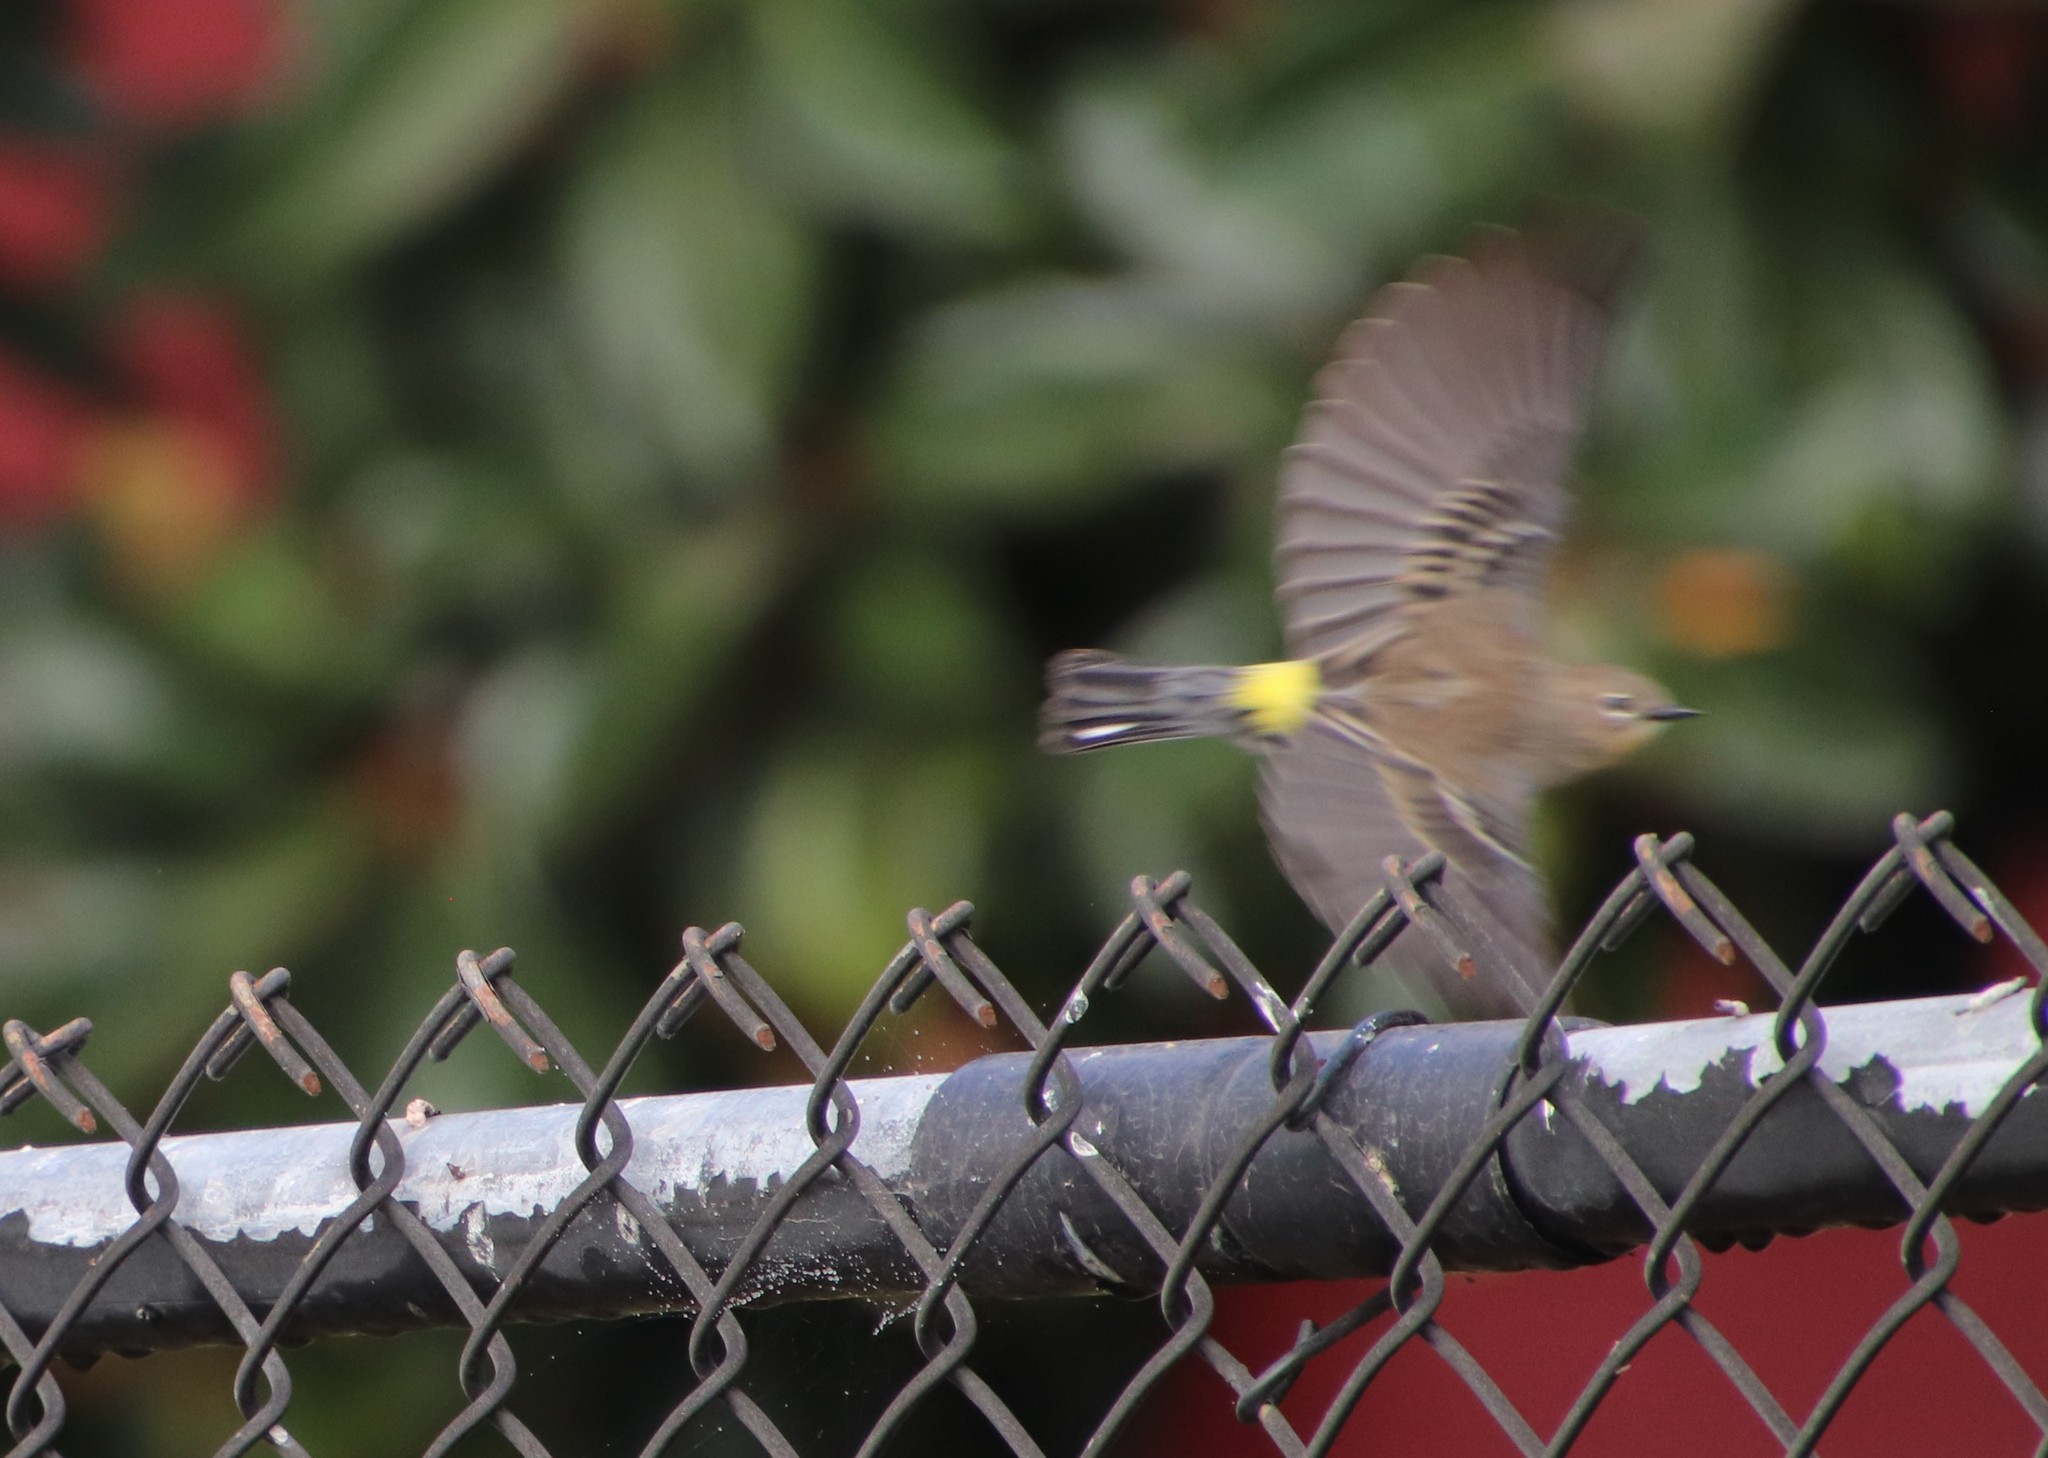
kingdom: Animalia
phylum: Chordata
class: Aves
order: Passeriformes
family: Parulidae
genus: Setophaga
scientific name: Setophaga coronata
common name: Myrtle warbler
